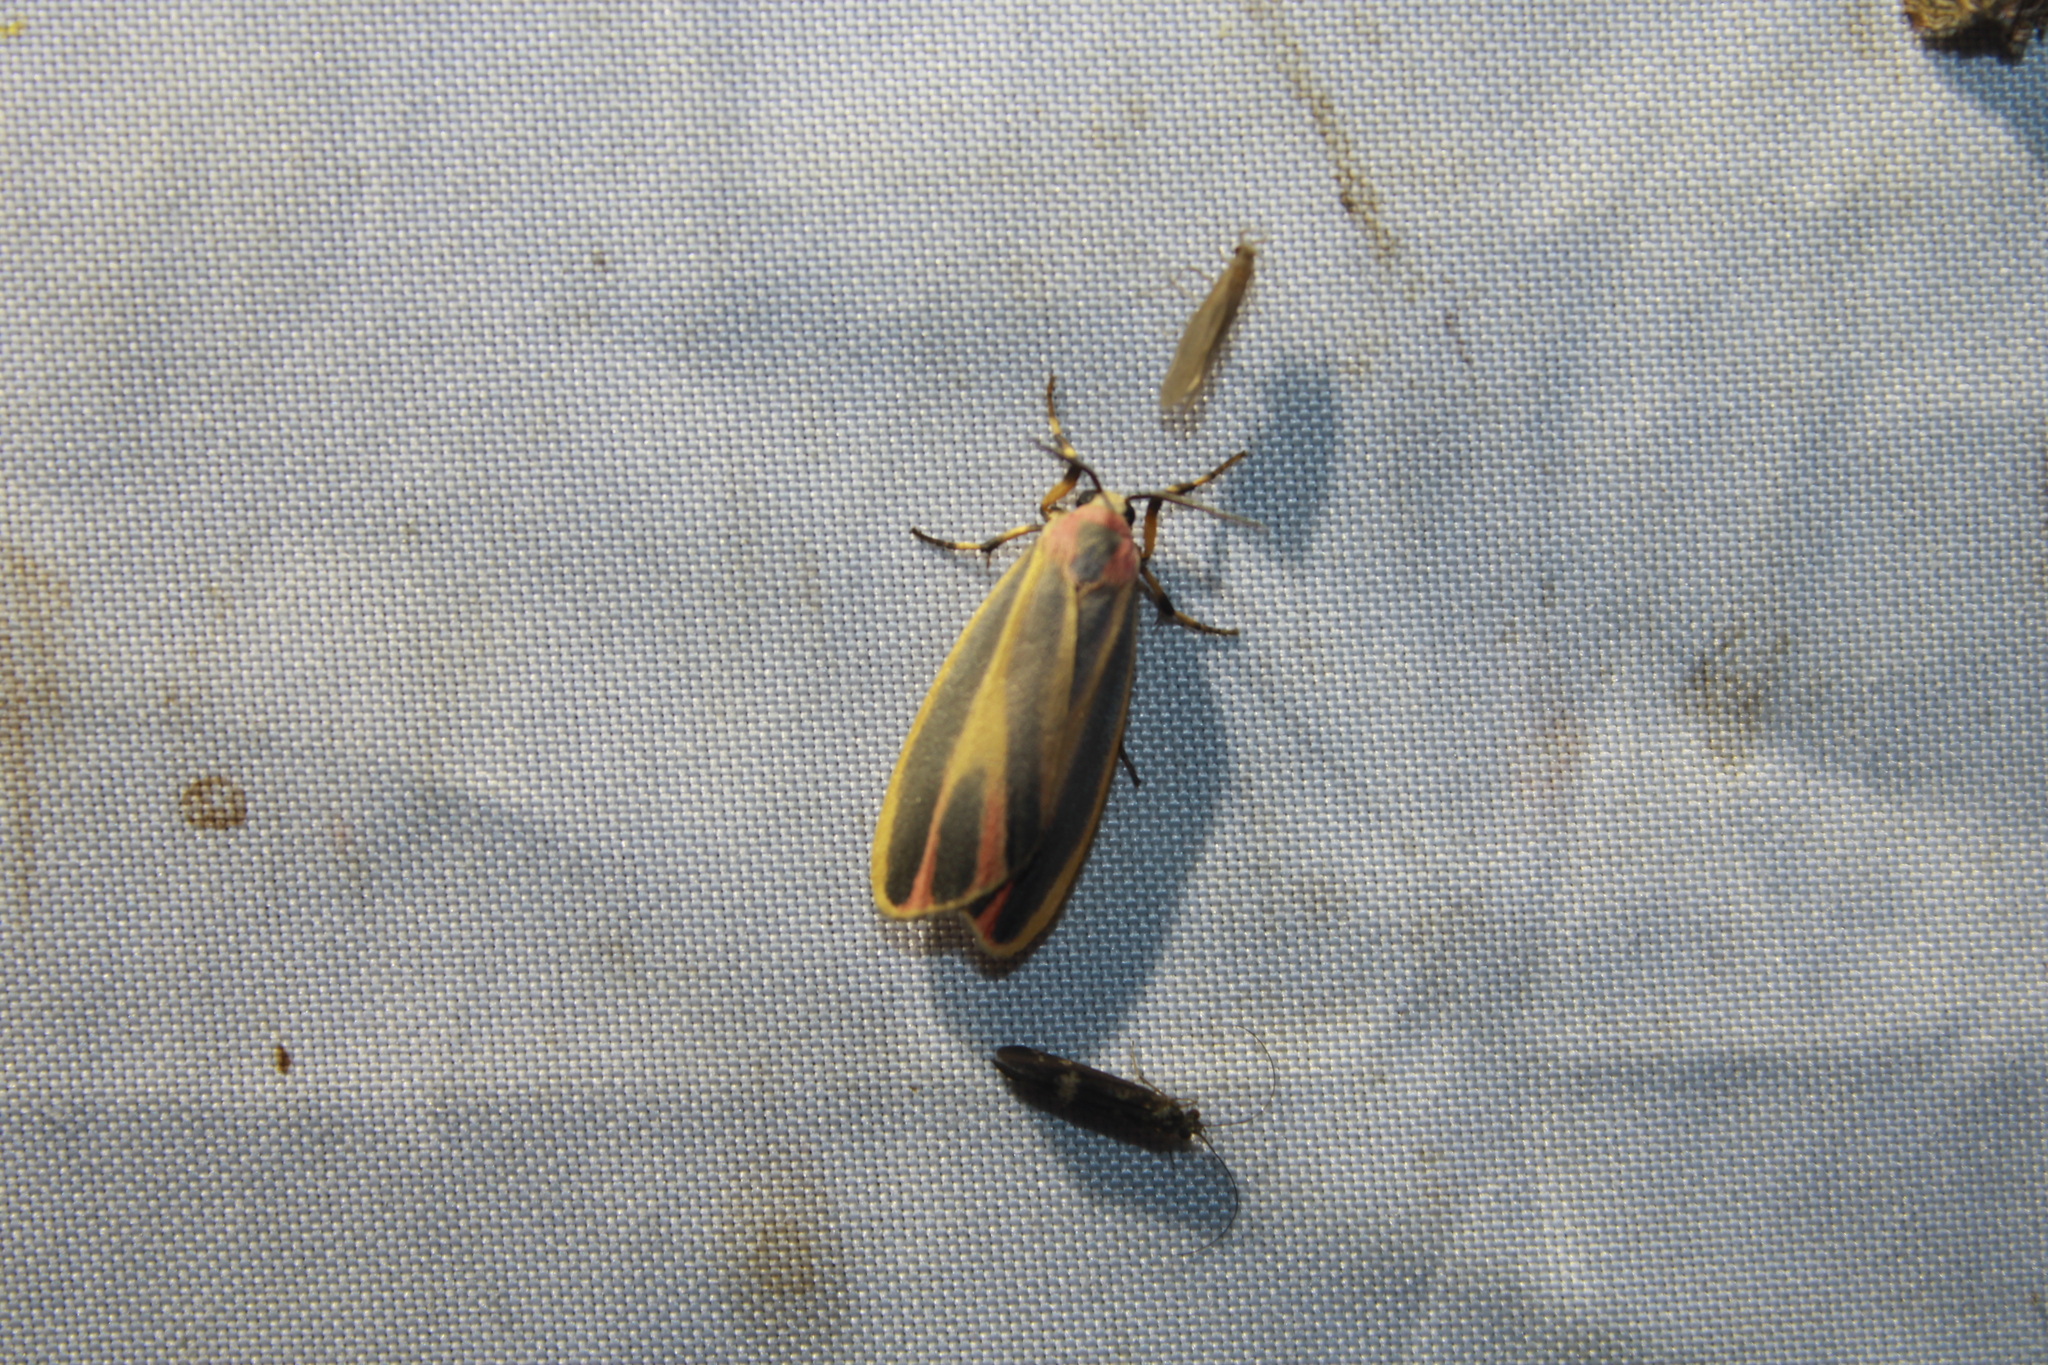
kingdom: Animalia
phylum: Arthropoda
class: Insecta
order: Lepidoptera
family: Erebidae
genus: Hypoprepia
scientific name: Hypoprepia fucosa
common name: Painted lichen moth
